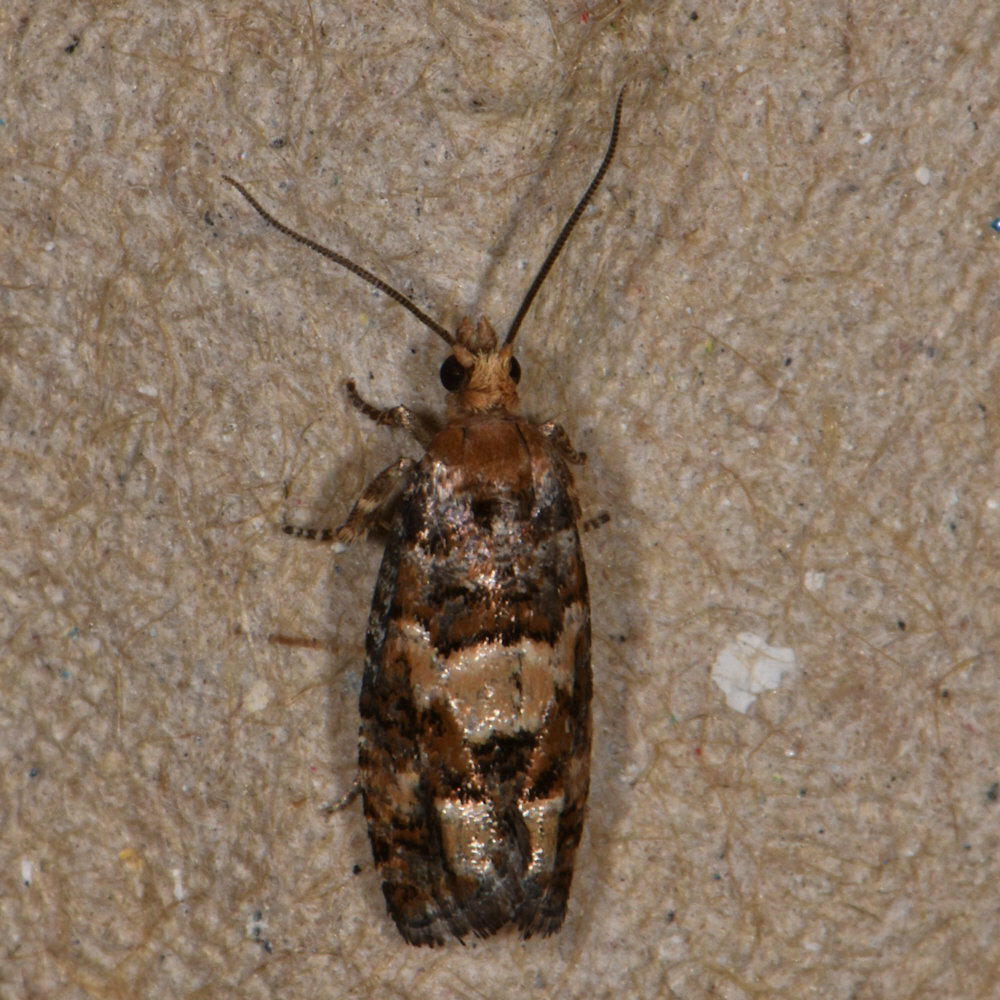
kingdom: Animalia
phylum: Arthropoda
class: Insecta
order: Lepidoptera
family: Tortricidae
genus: Eucopina
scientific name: Eucopina tocullionana
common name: White pinecone borer moth
